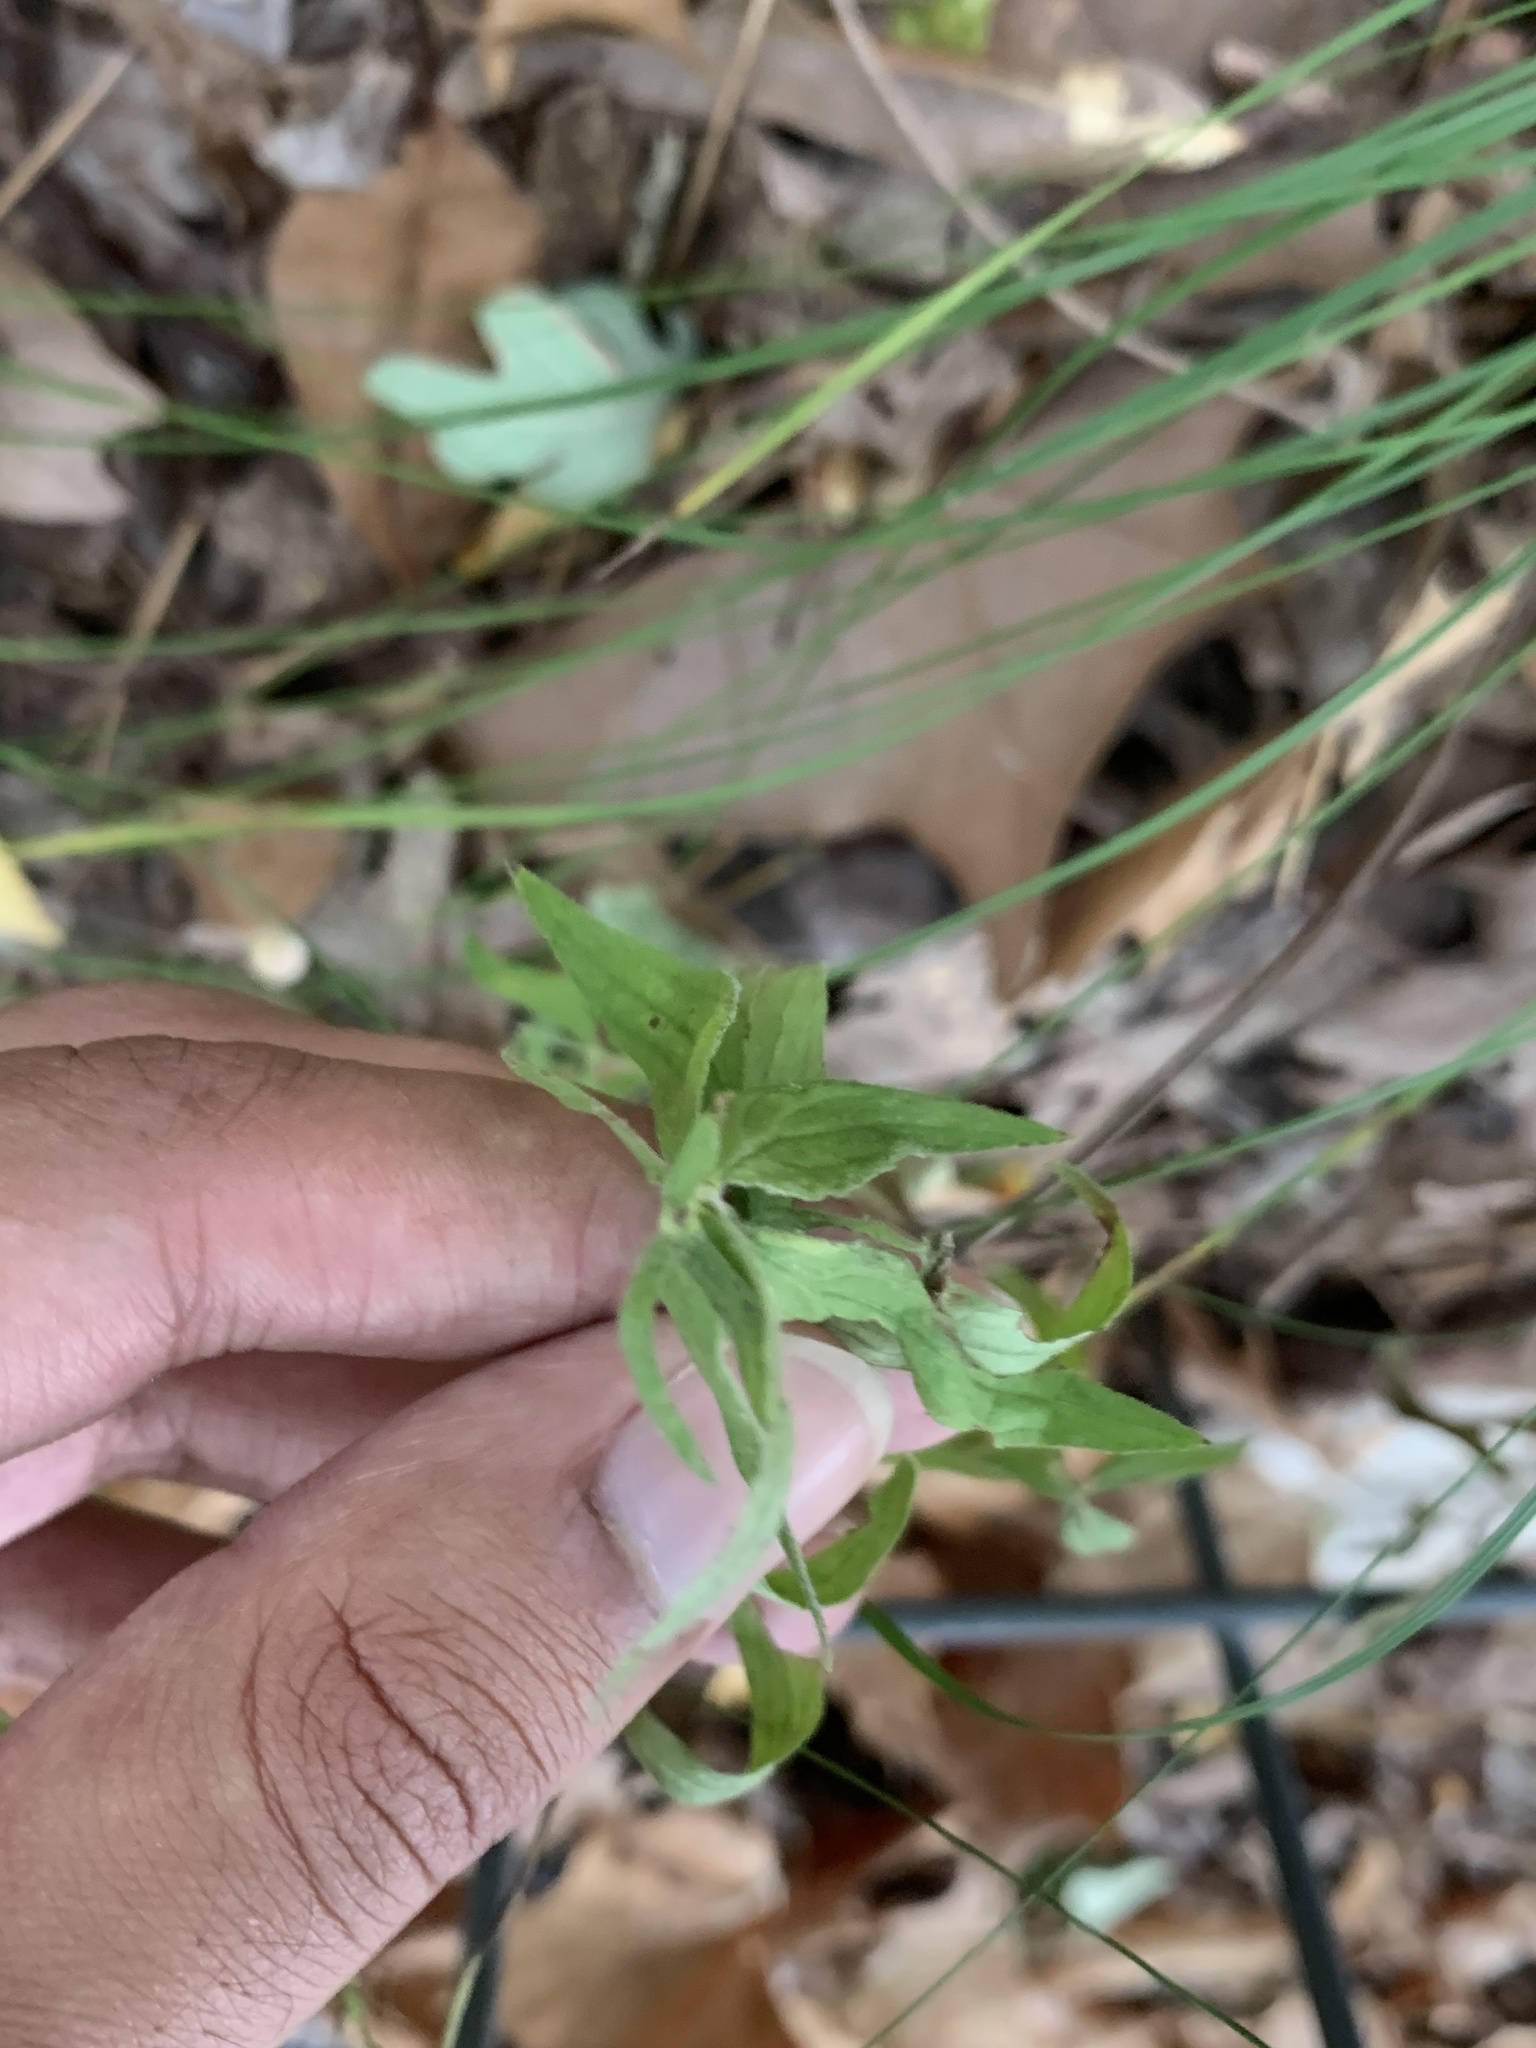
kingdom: Plantae
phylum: Tracheophyta
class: Magnoliopsida
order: Lamiales
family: Lamiaceae
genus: Pycnanthemum
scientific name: Pycnanthemum torreyi
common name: Torrey's mountain-mint
